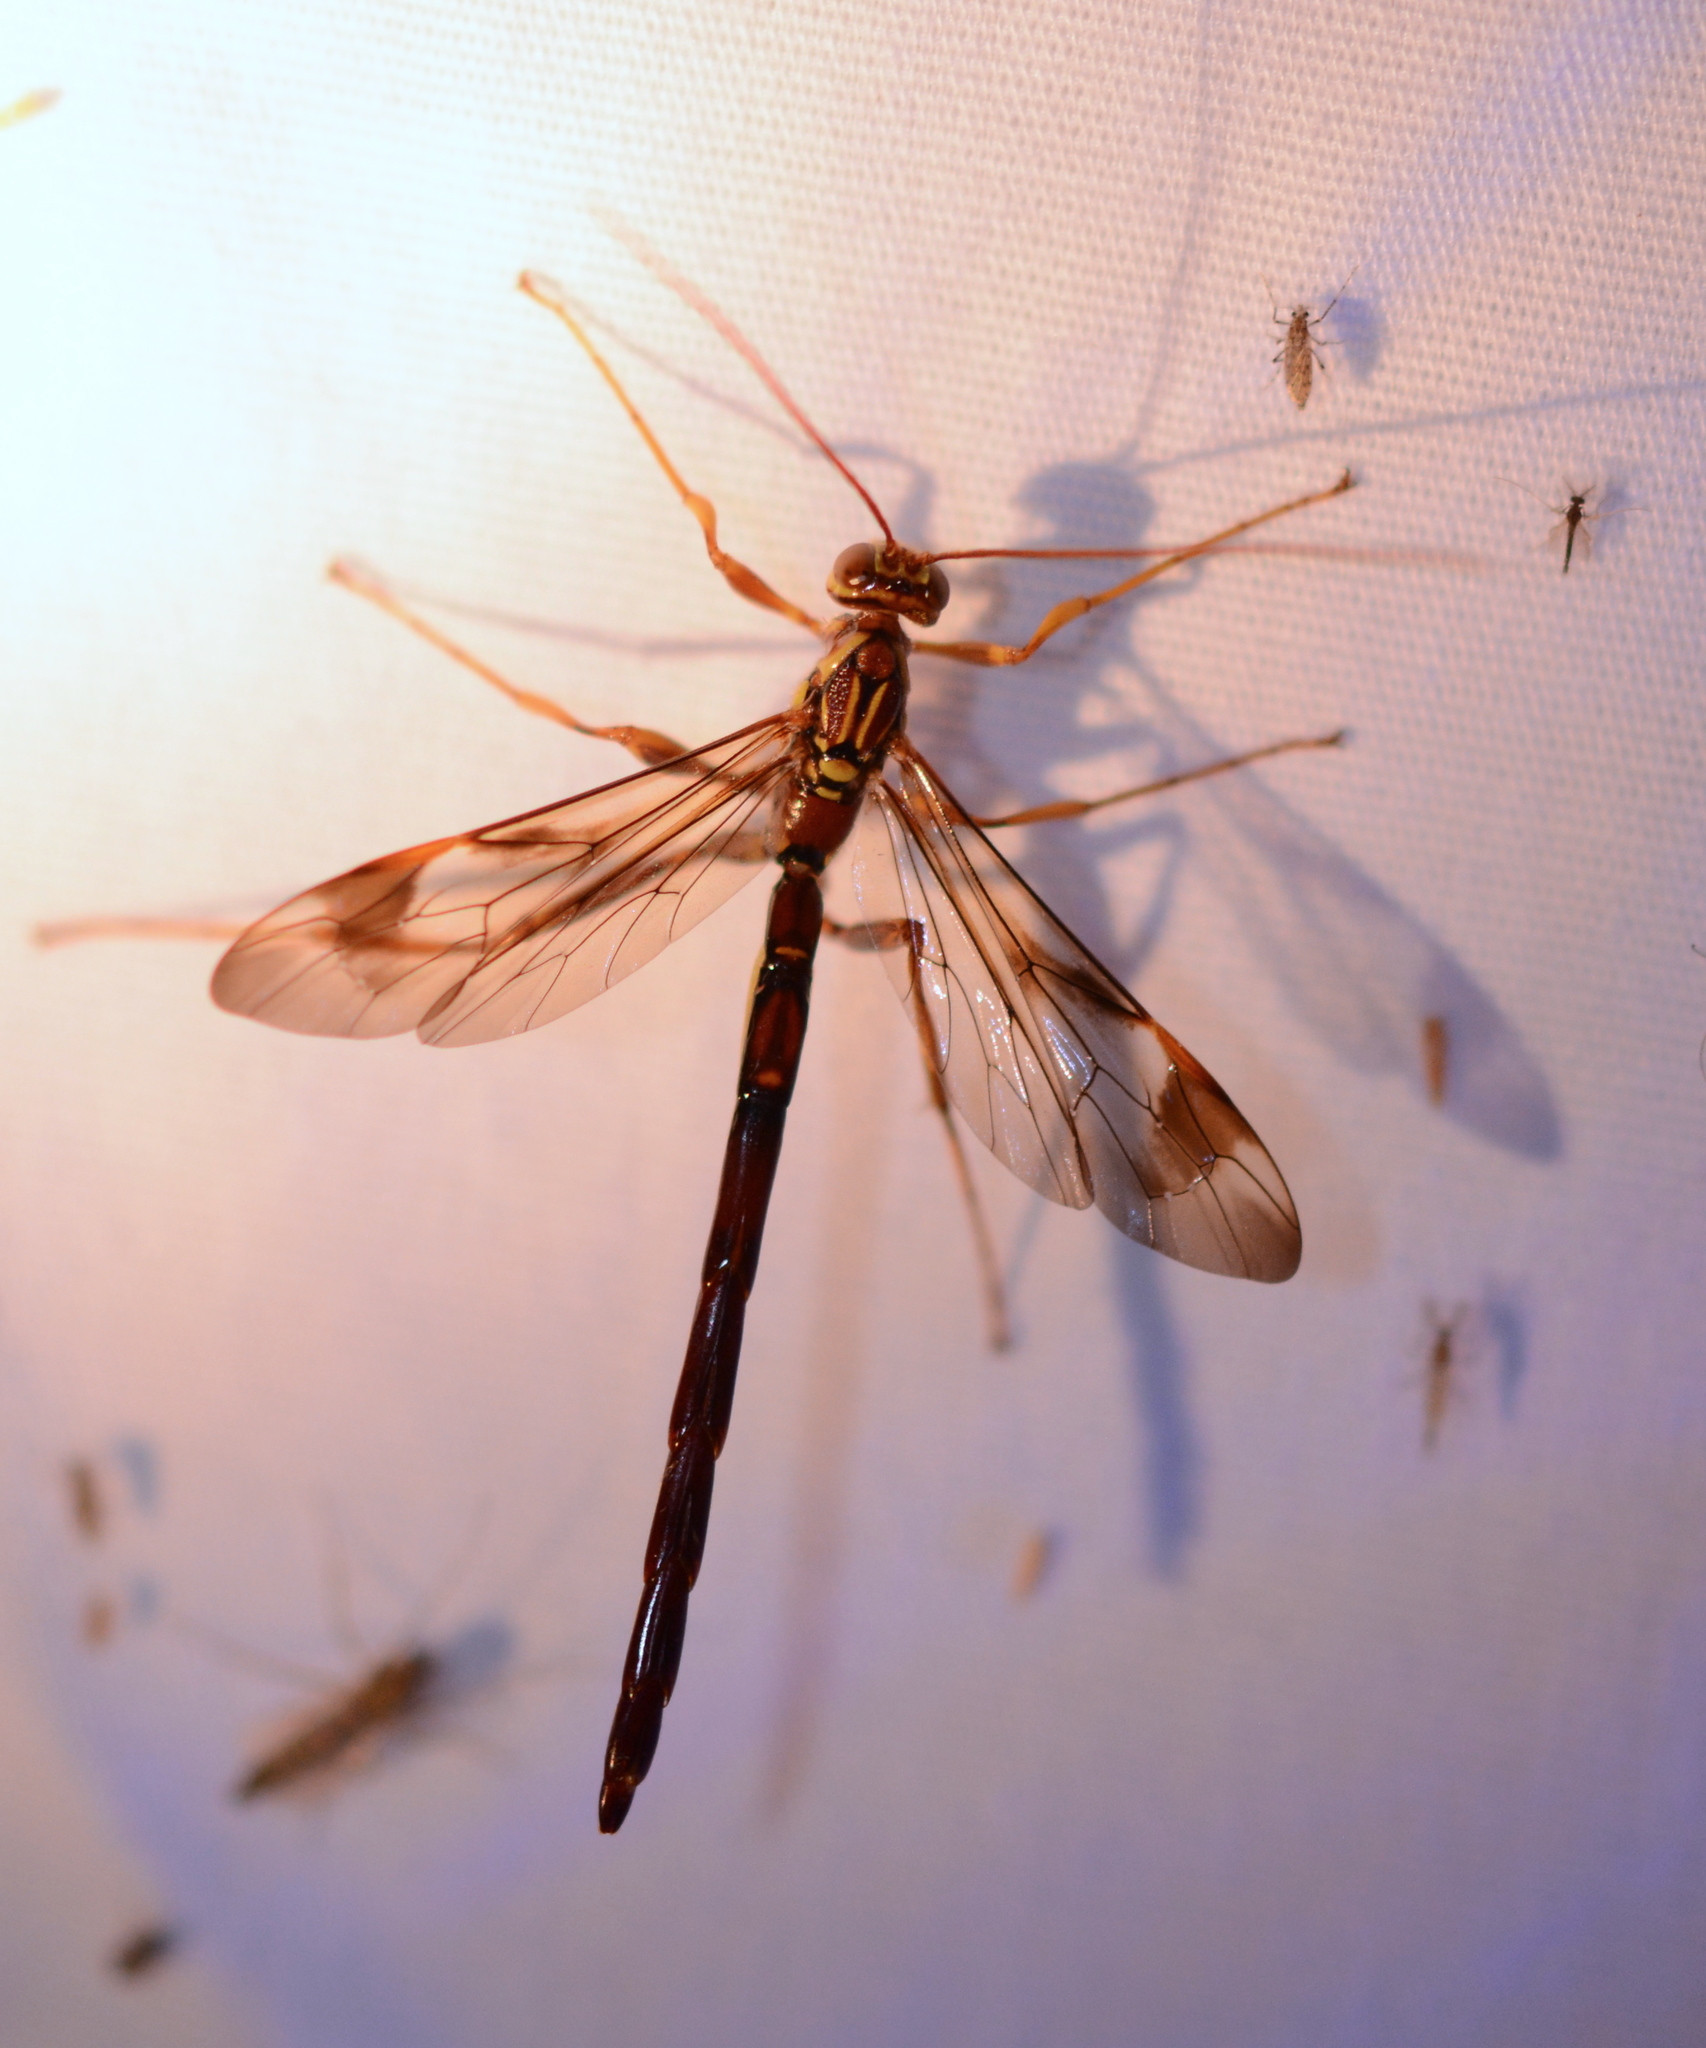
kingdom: Animalia
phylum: Arthropoda
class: Insecta
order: Hymenoptera
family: Ichneumonidae
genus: Megarhyssa
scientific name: Megarhyssa macrura
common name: Long-tailed giant ichneumonid wasp
